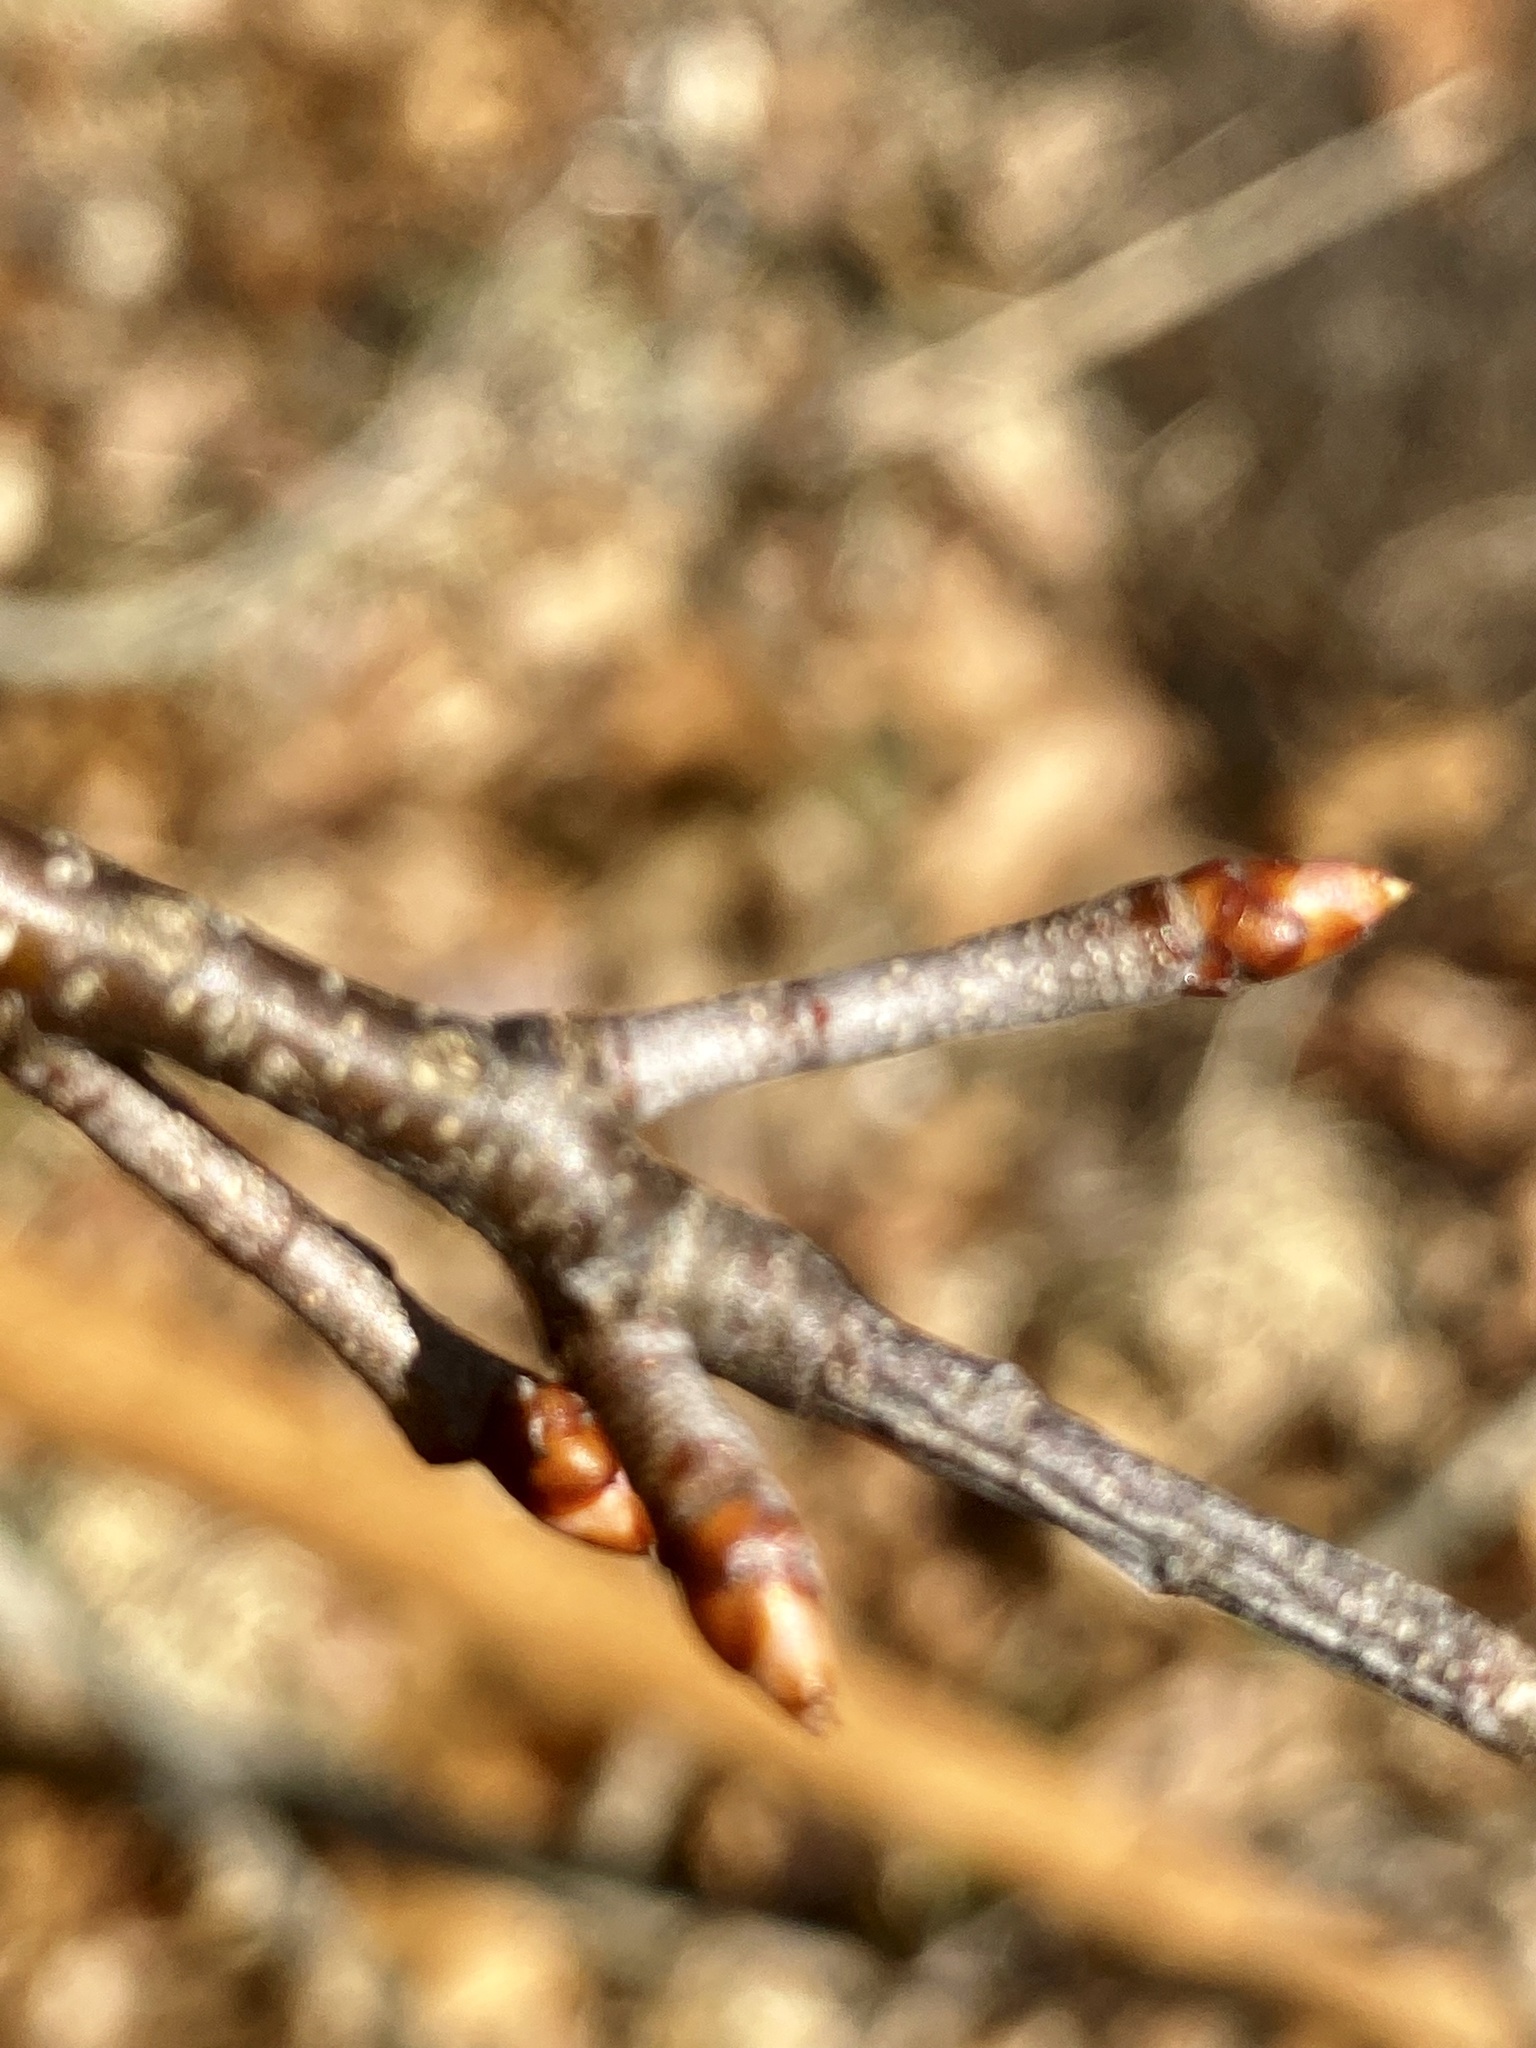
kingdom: Plantae
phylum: Tracheophyta
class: Magnoliopsida
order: Rosales
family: Rosaceae
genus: Prunus
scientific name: Prunus serotina
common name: Black cherry
